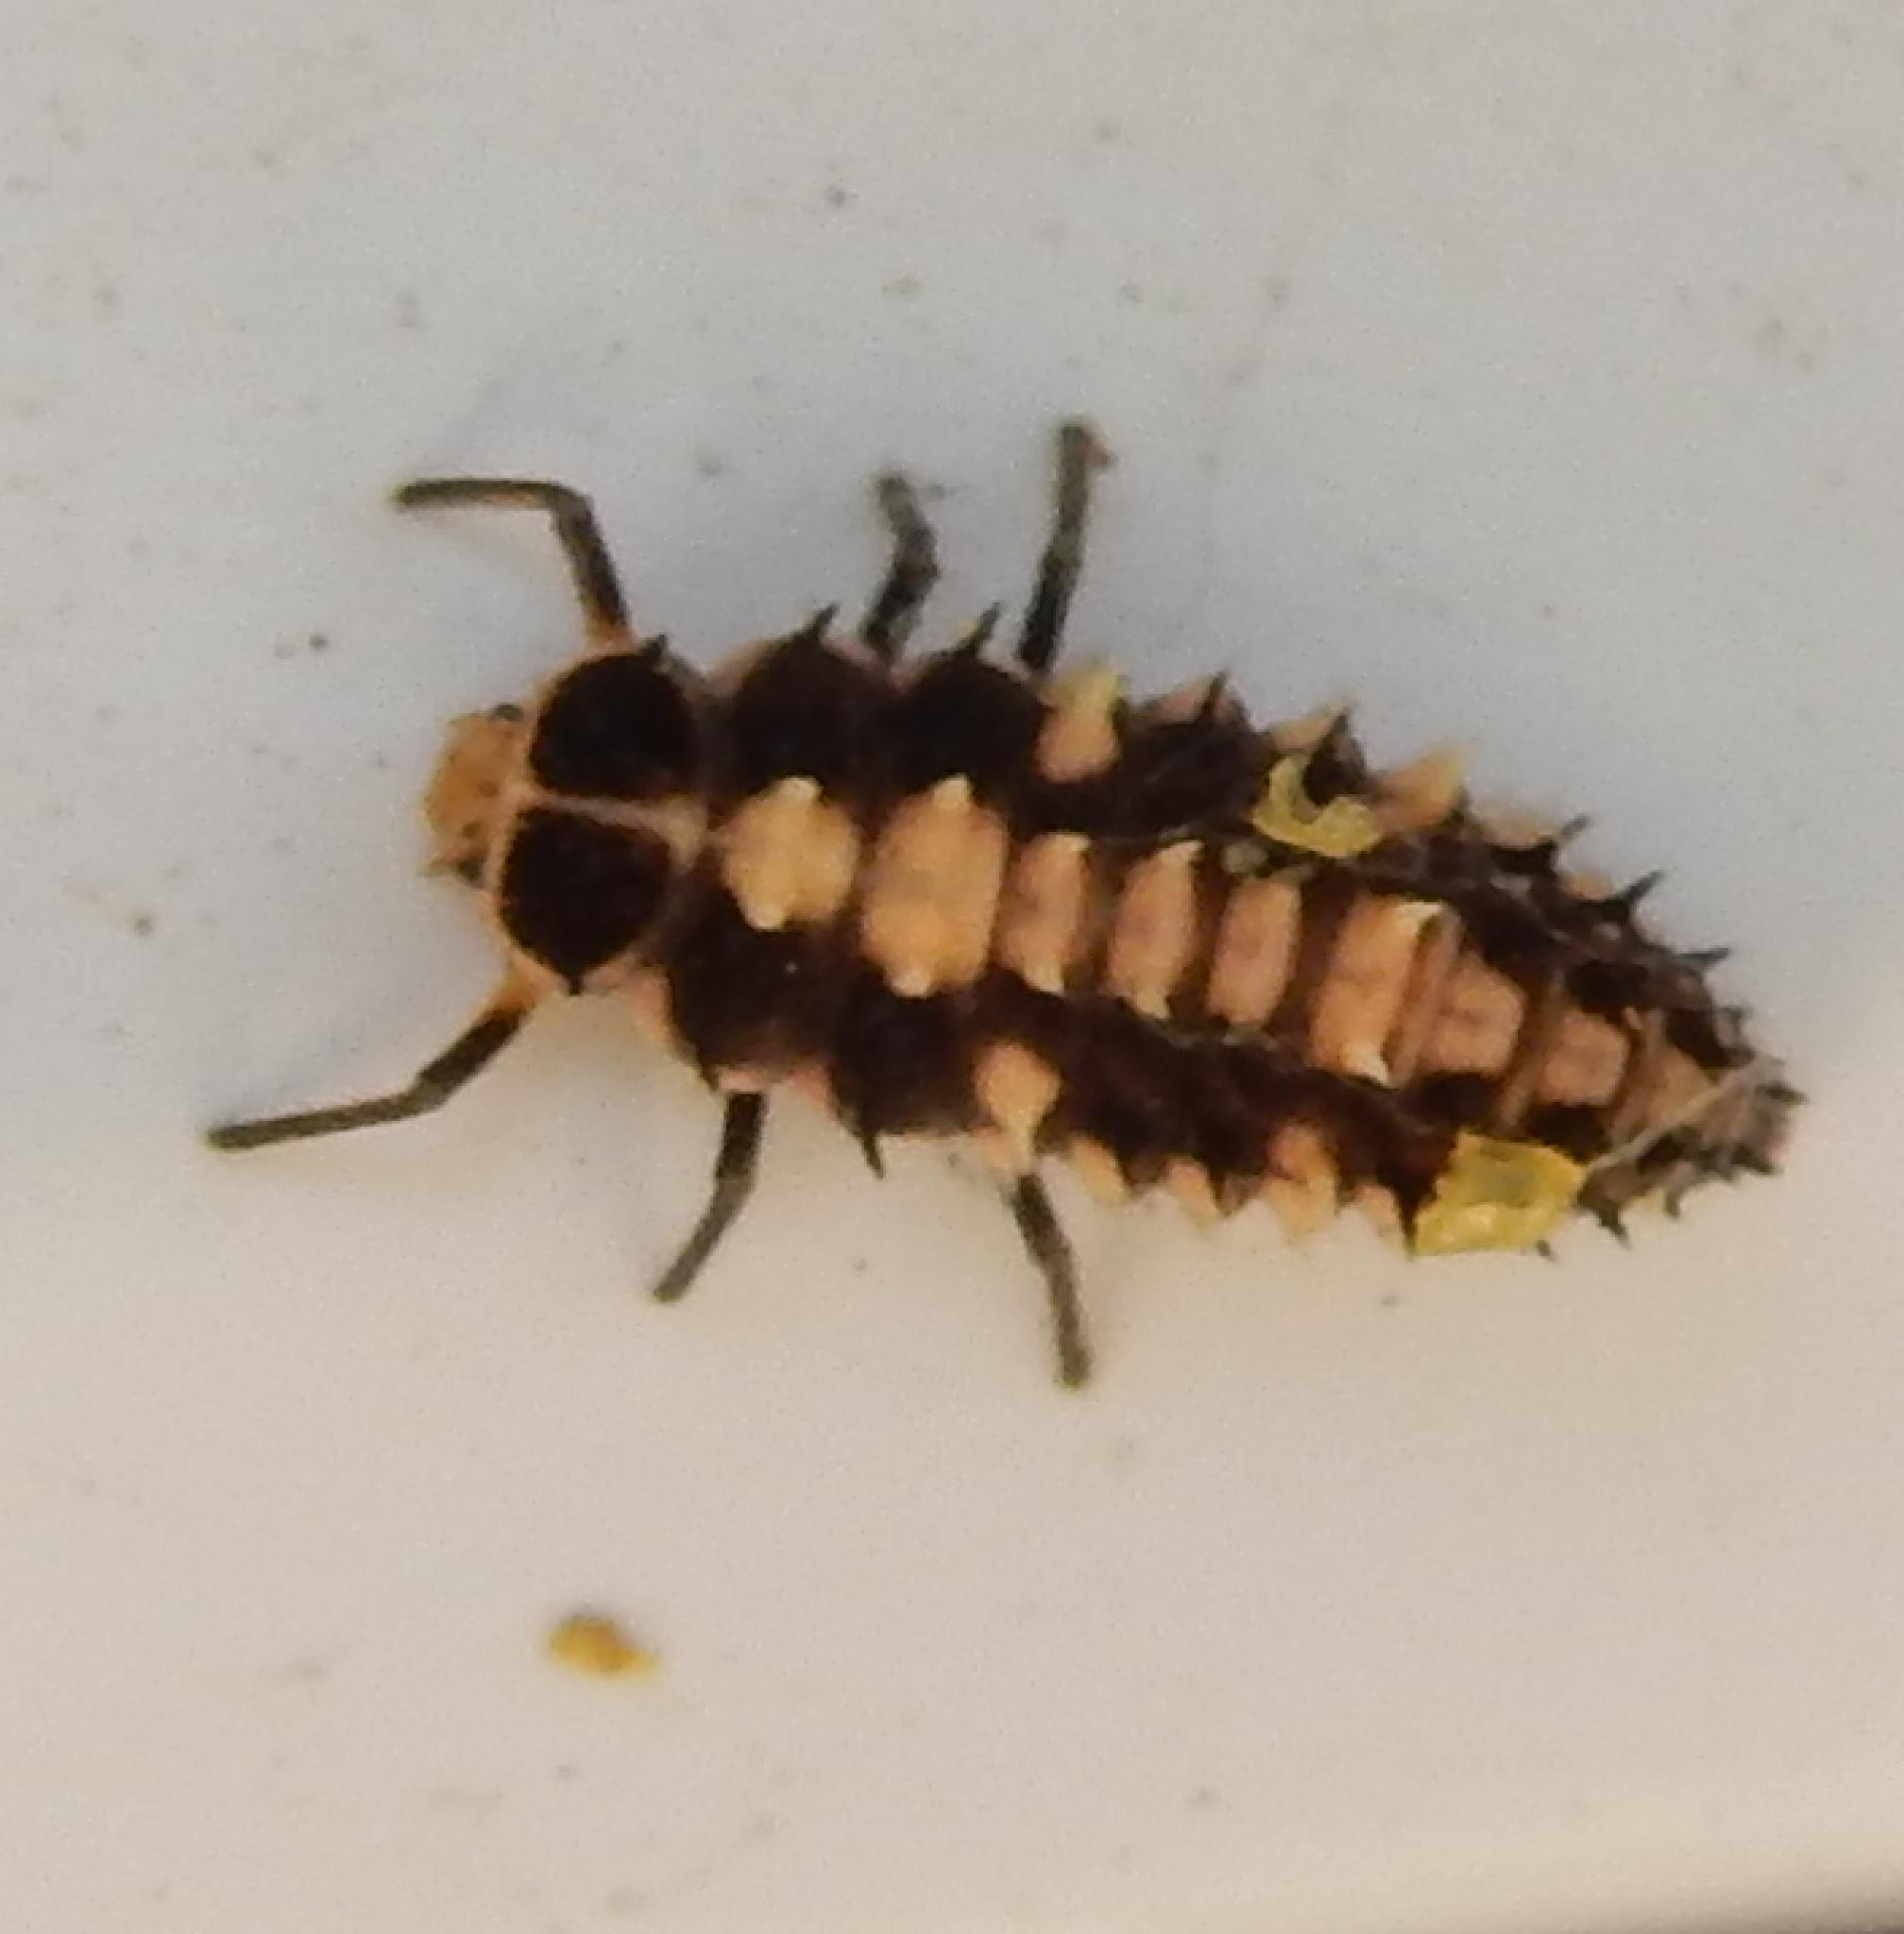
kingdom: Animalia
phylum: Arthropoda
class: Insecta
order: Coleoptera
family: Coccinellidae
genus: Cheilomenes
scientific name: Cheilomenes propinqua
